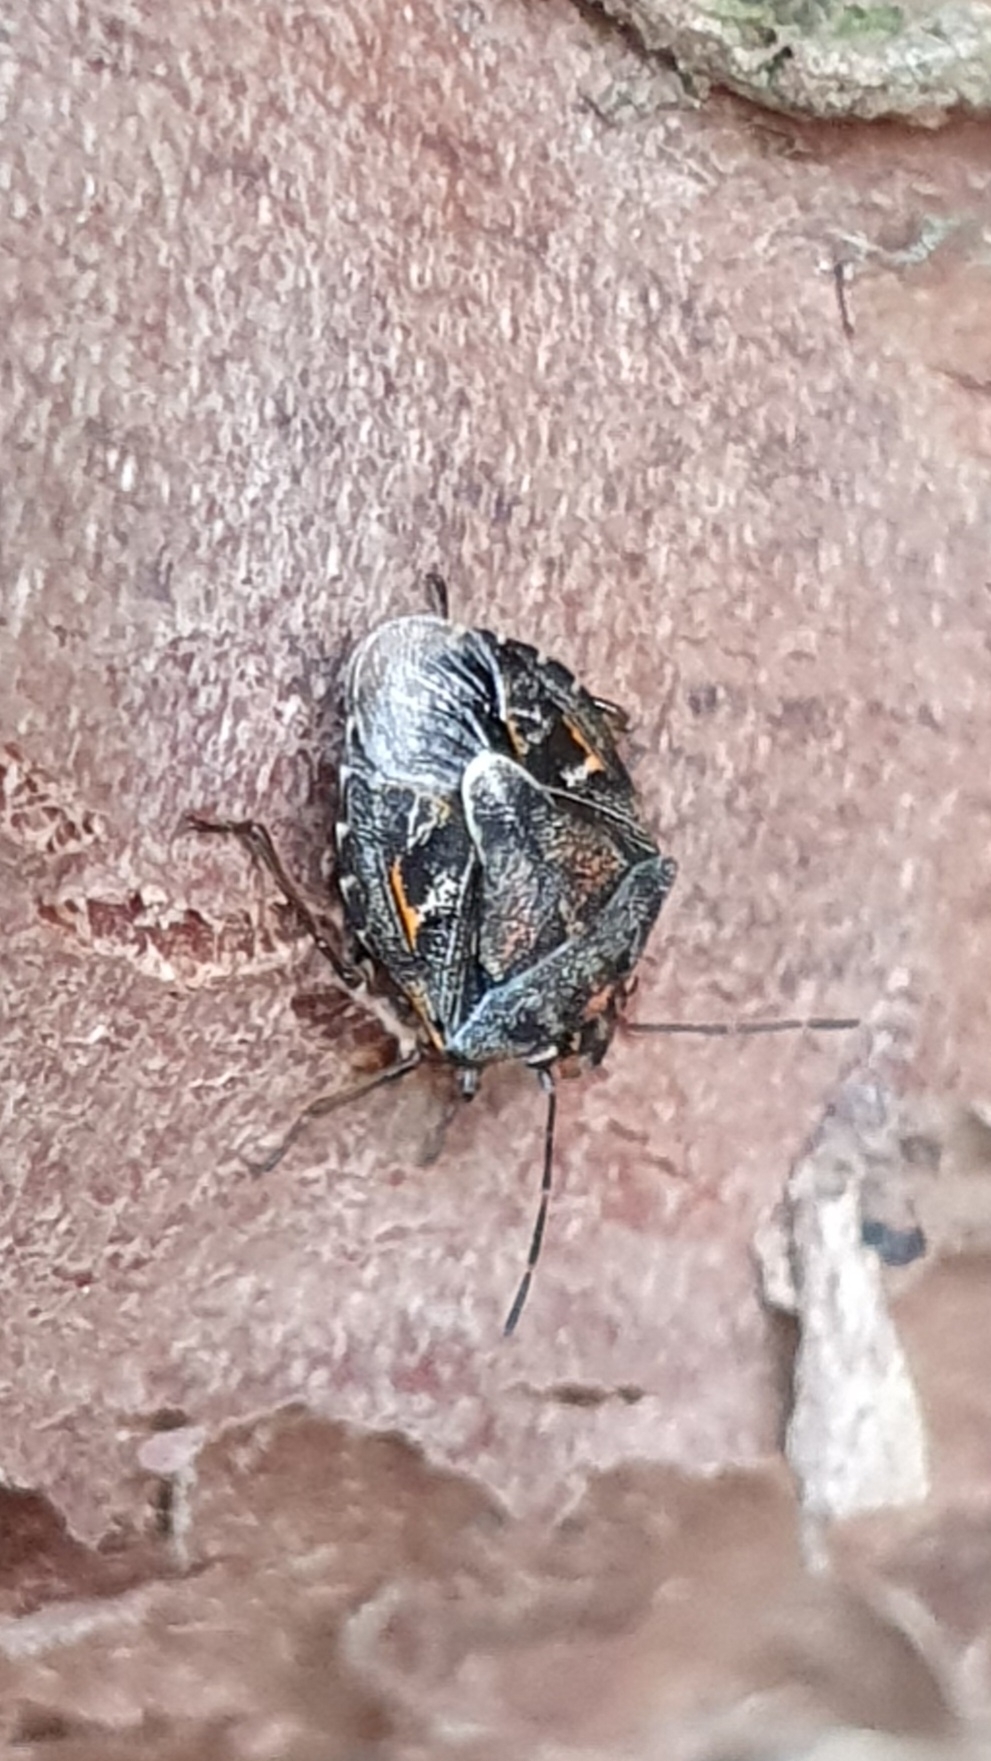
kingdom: Animalia
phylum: Arthropoda
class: Insecta
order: Hemiptera
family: Pentatomidae
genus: Holcogaster
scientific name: Holcogaster fibulata
